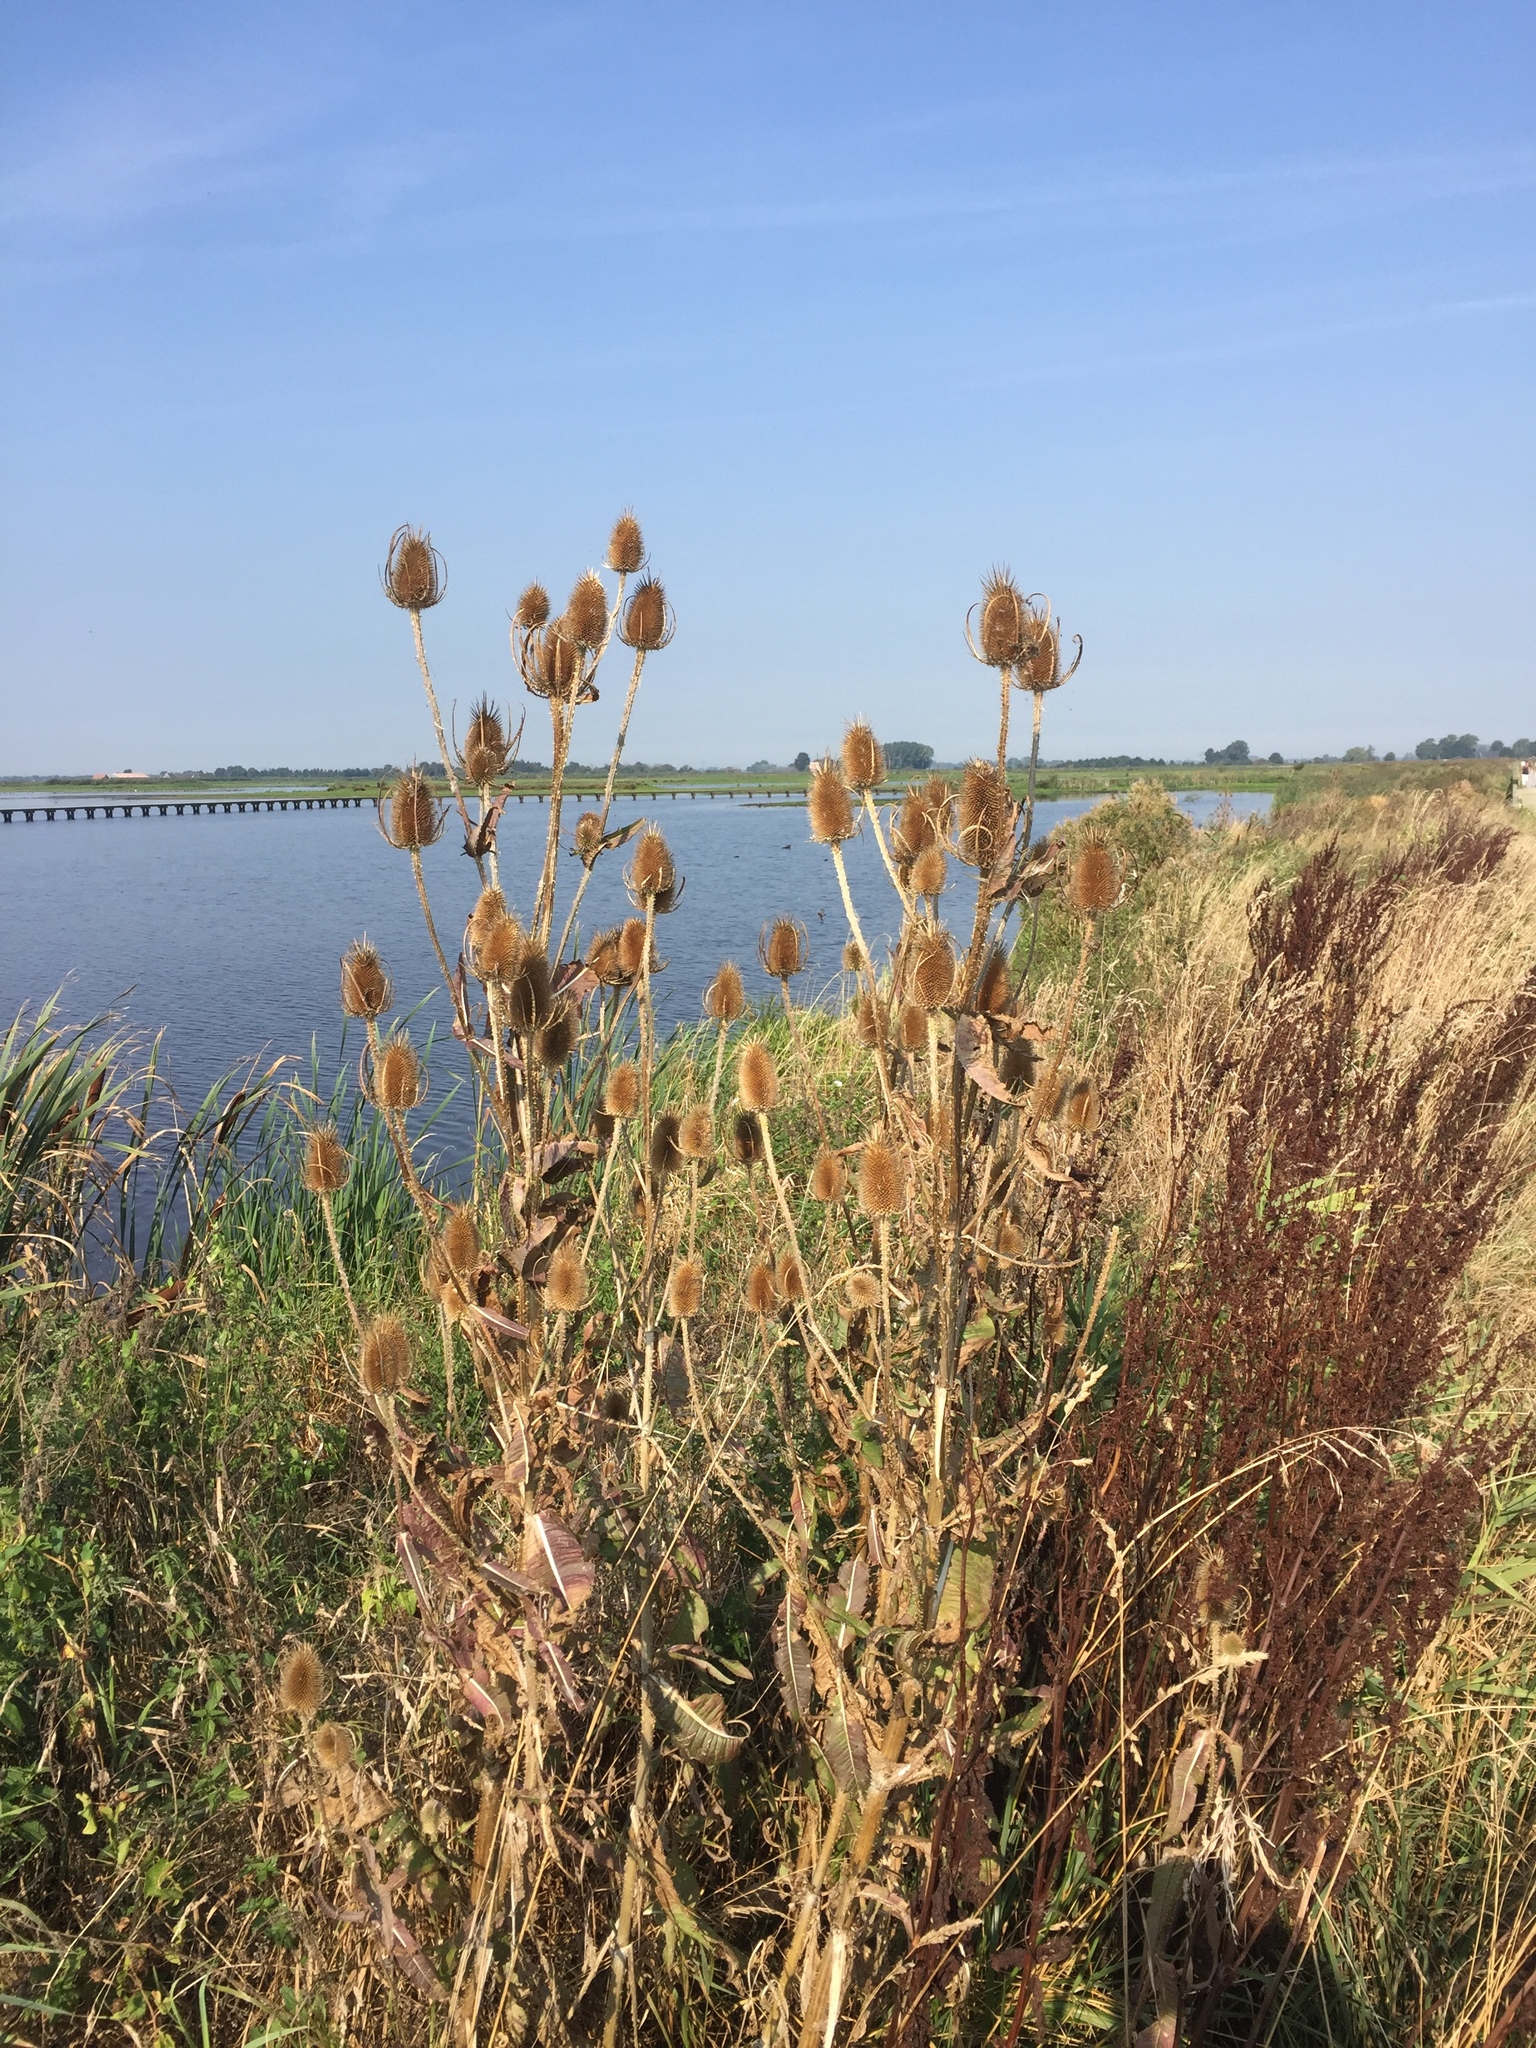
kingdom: Plantae
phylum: Tracheophyta
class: Magnoliopsida
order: Dipsacales
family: Caprifoliaceae
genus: Dipsacus
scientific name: Dipsacus fullonum
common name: Teasel
